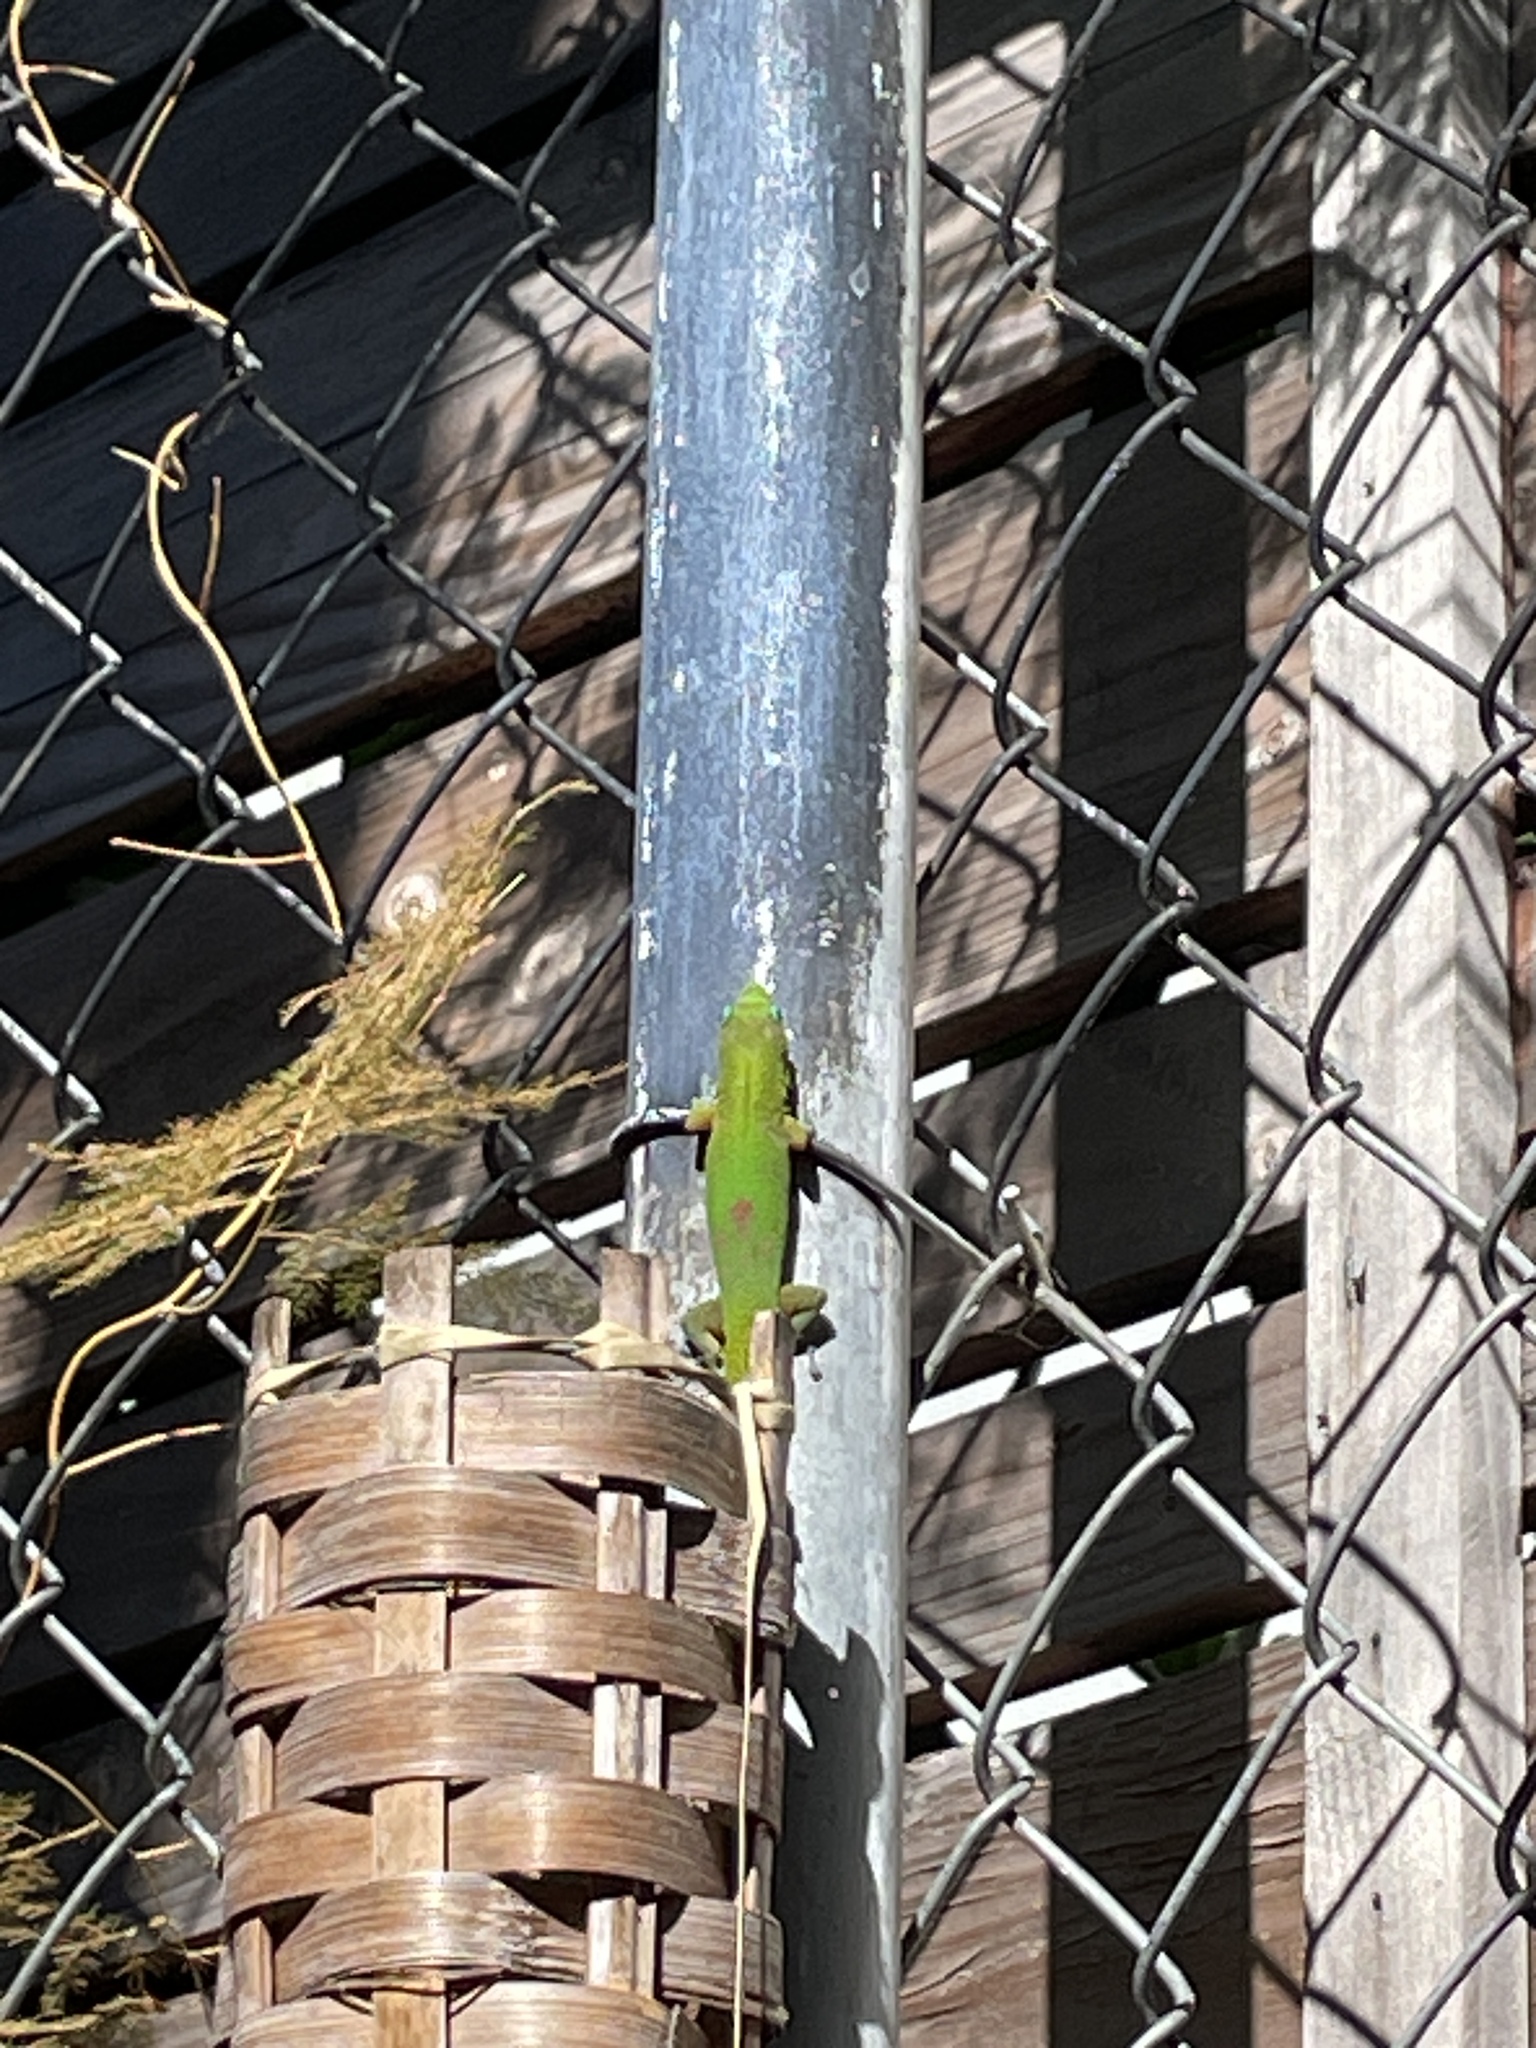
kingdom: Animalia
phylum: Chordata
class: Squamata
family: Gekkonidae
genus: Phelsuma
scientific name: Phelsuma laticauda
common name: Gold dust day gecko
